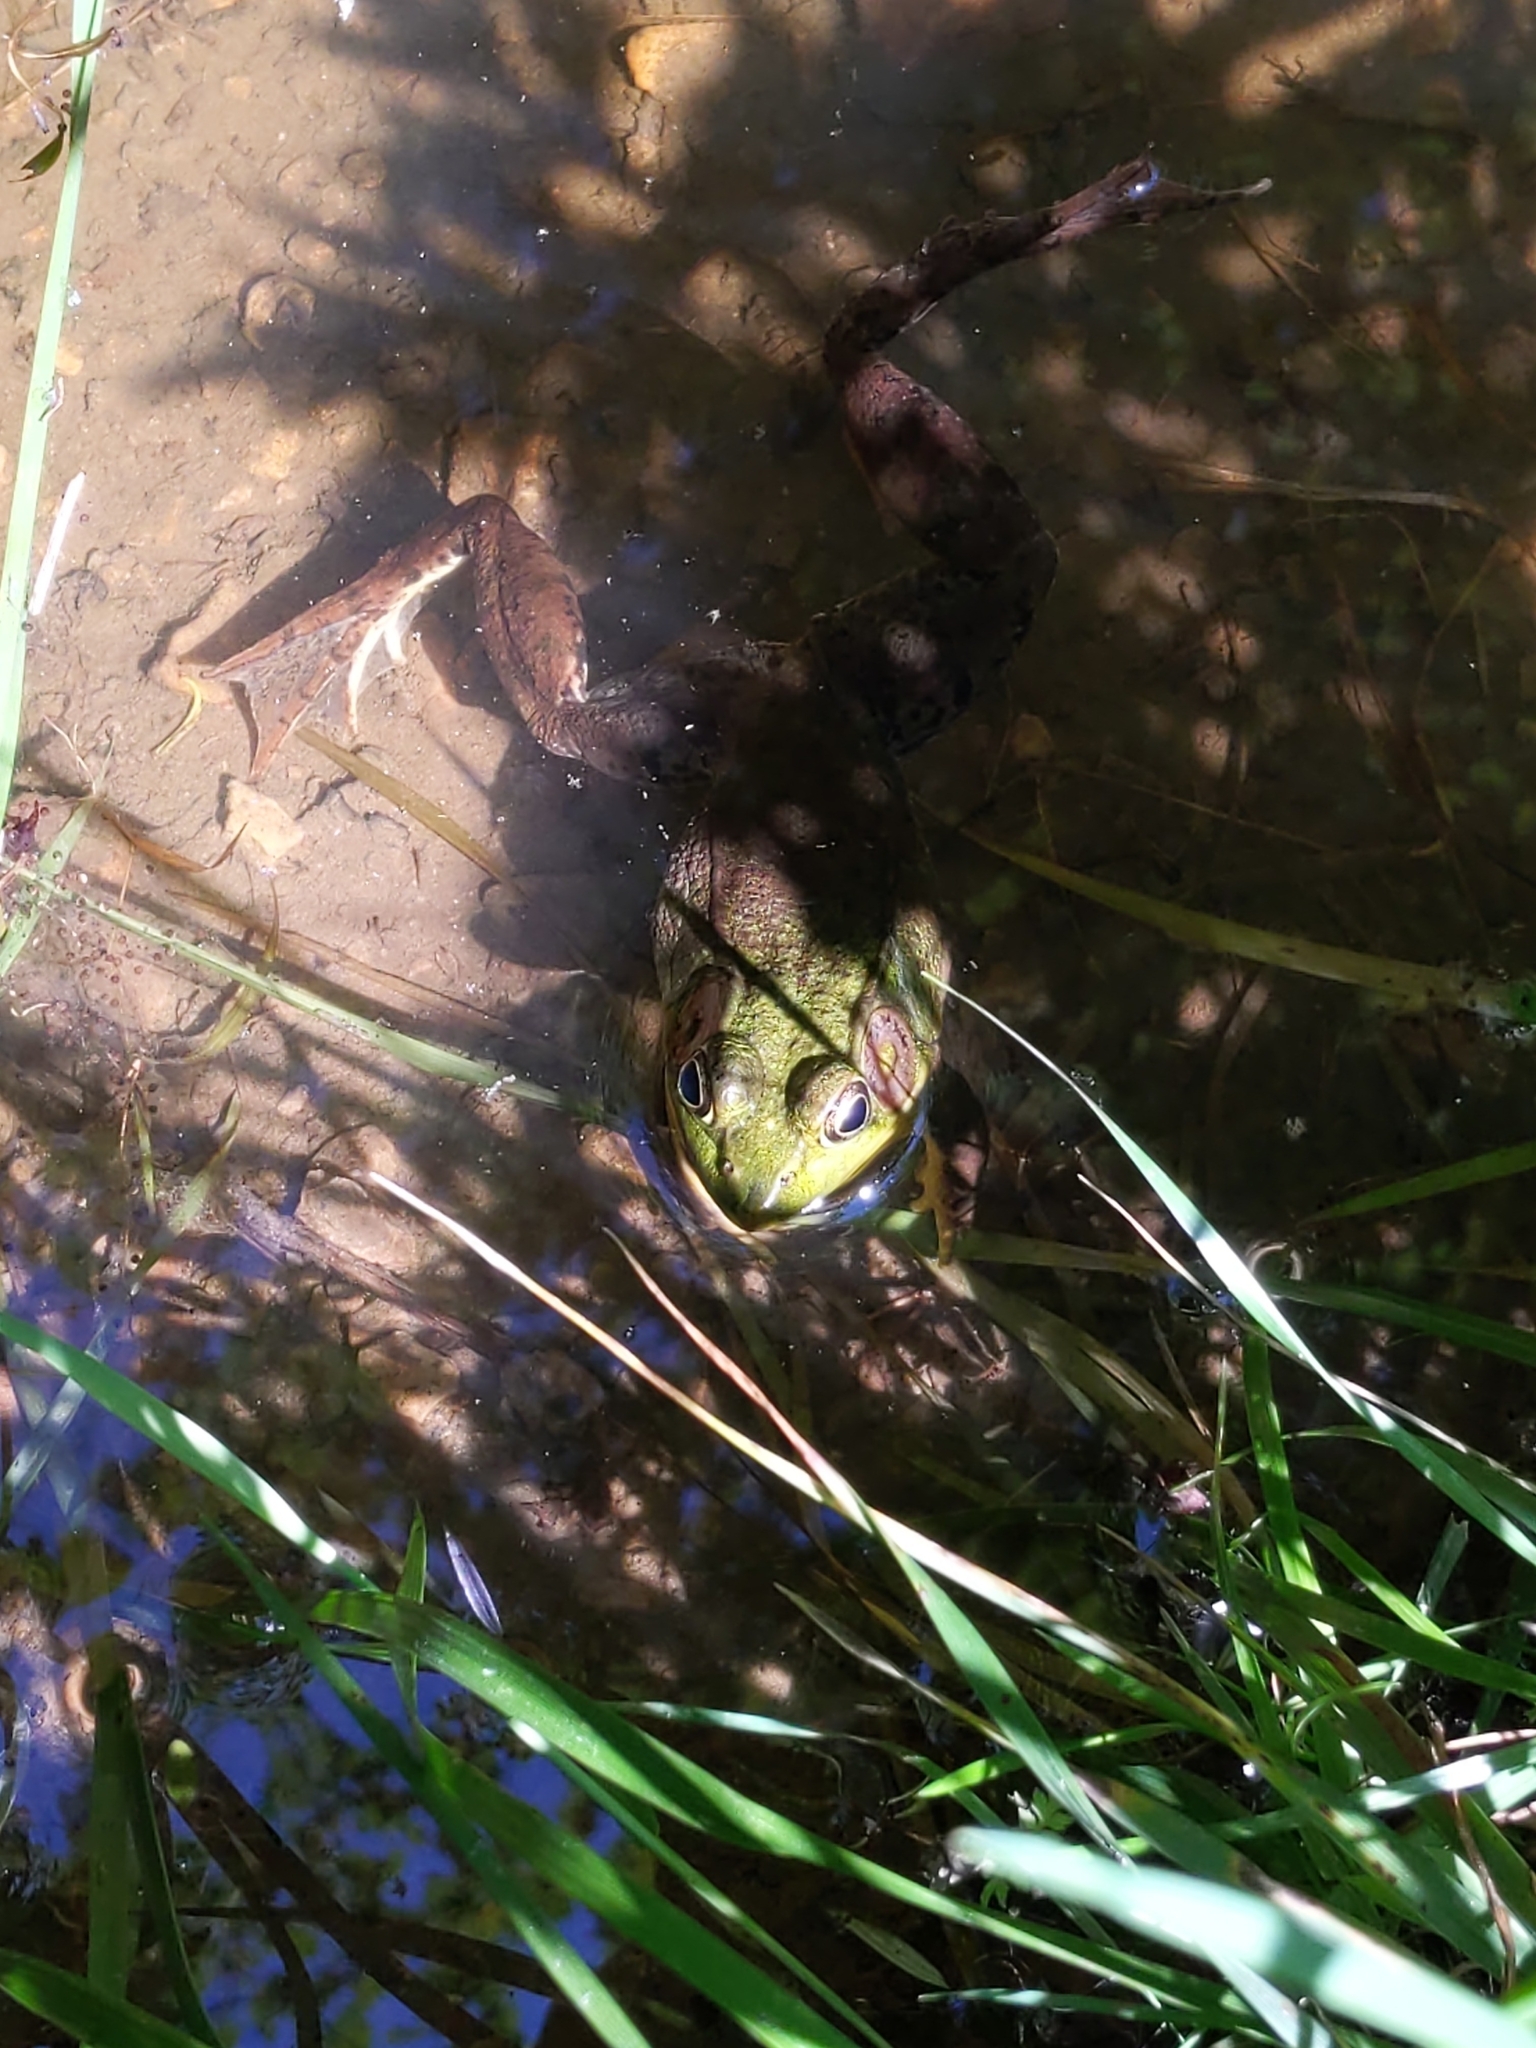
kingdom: Animalia
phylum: Chordata
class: Amphibia
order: Anura
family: Ranidae
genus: Lithobates
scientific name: Lithobates clamitans
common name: Green frog
